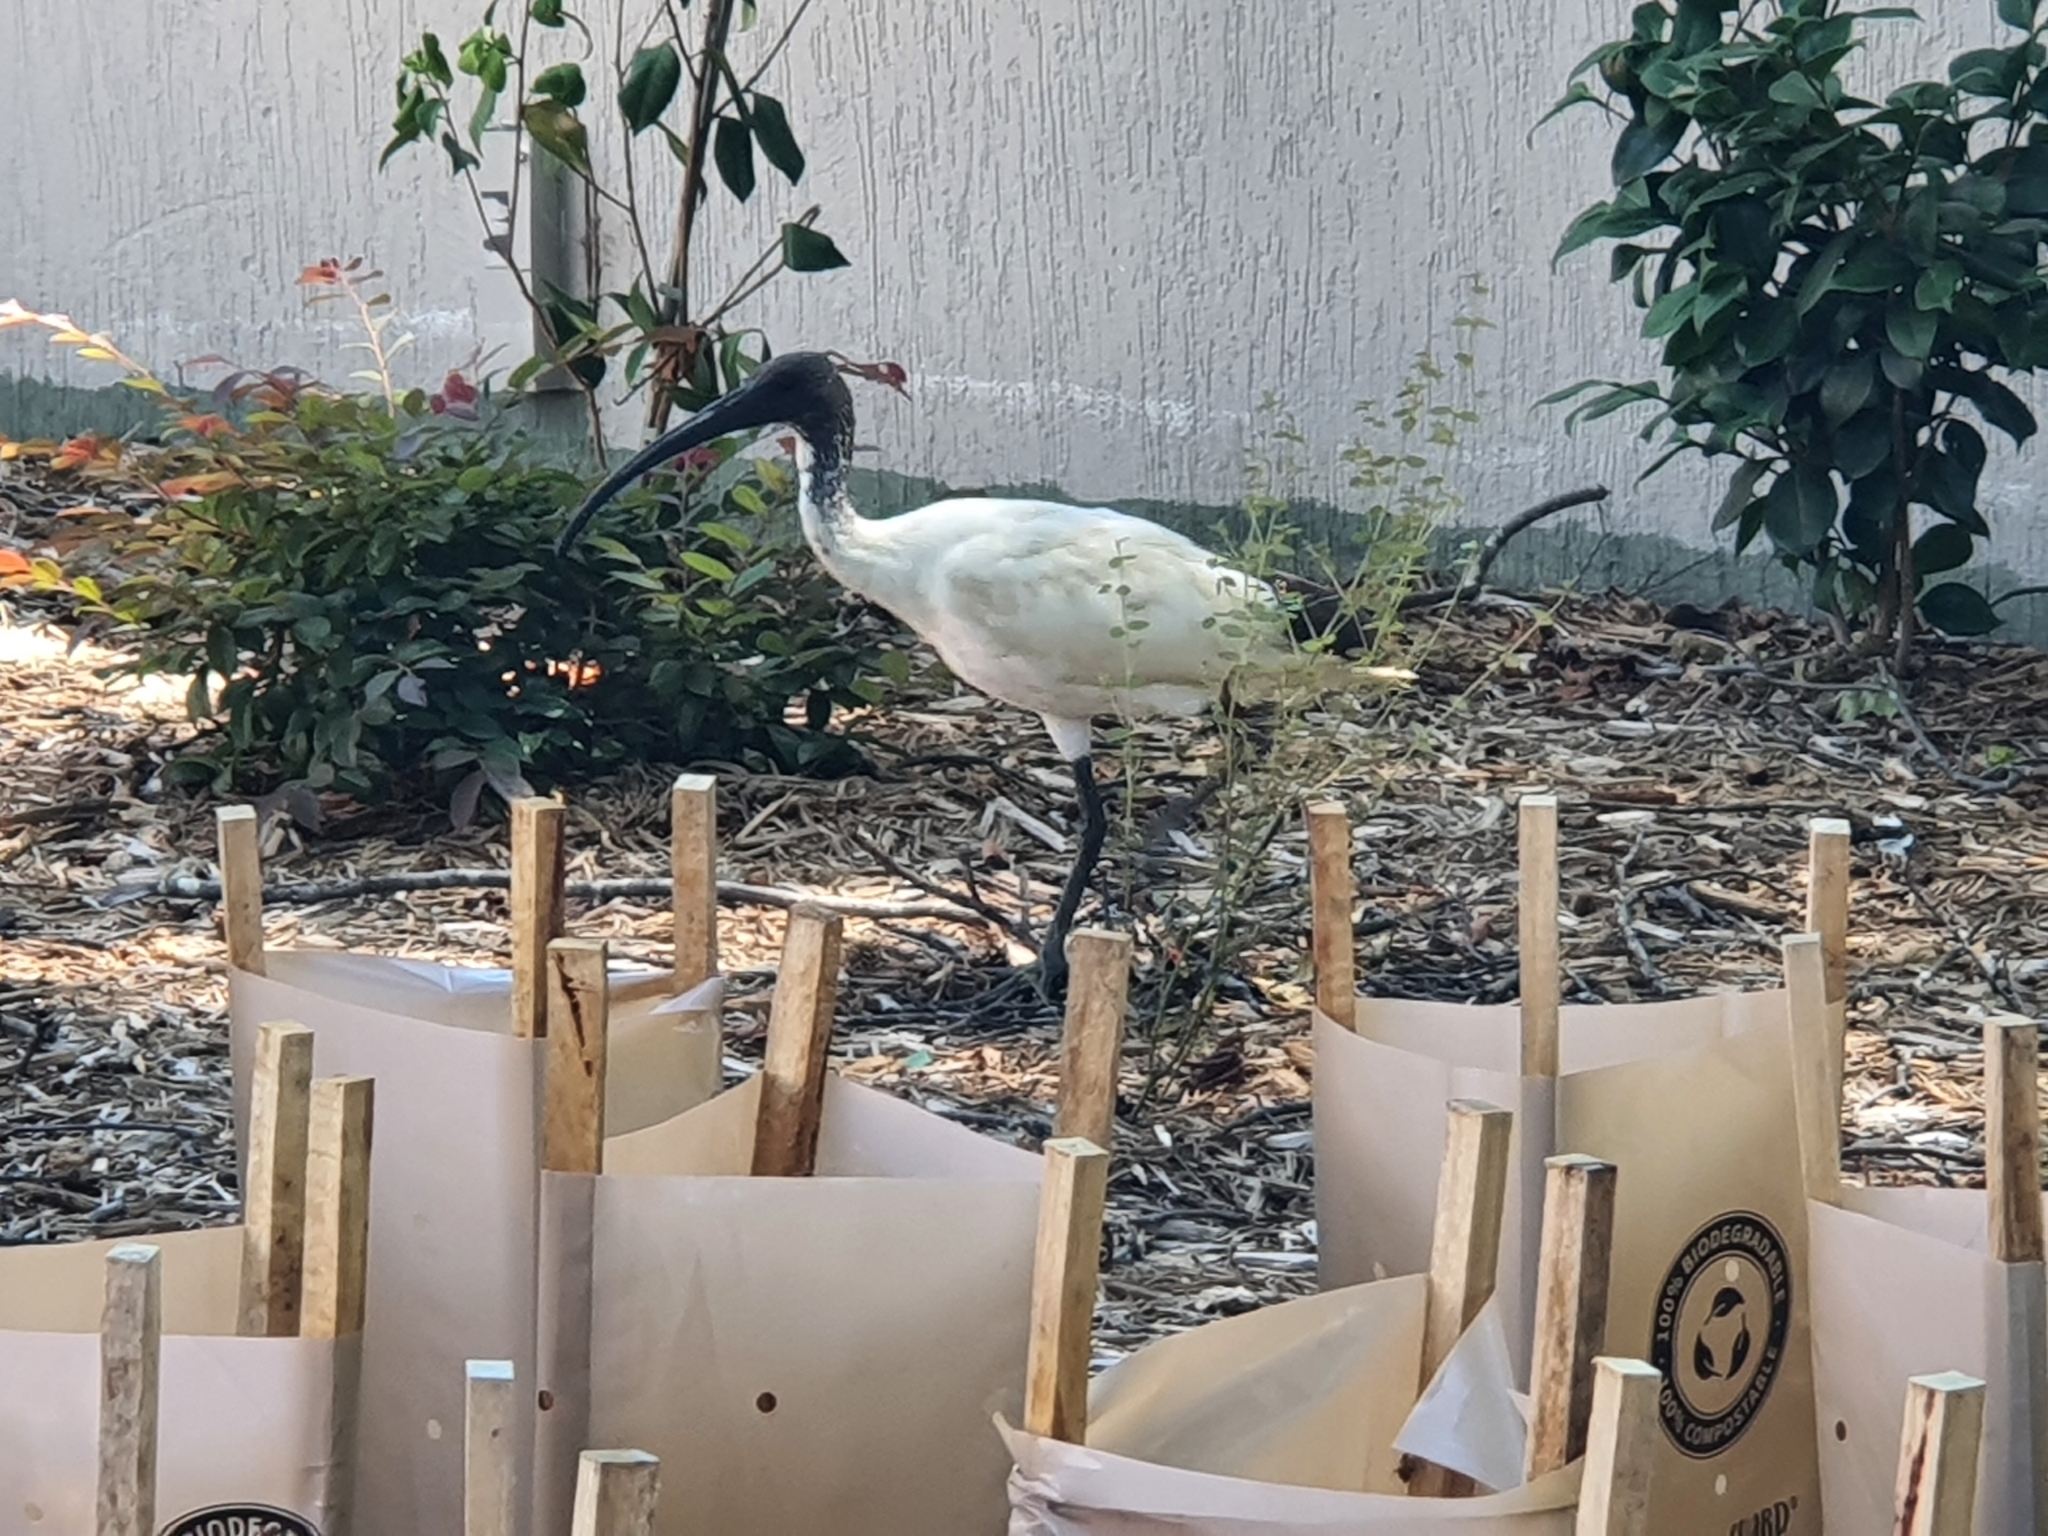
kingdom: Animalia
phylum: Chordata
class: Aves
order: Pelecaniformes
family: Threskiornithidae
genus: Threskiornis
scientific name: Threskiornis molucca
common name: Australian white ibis
